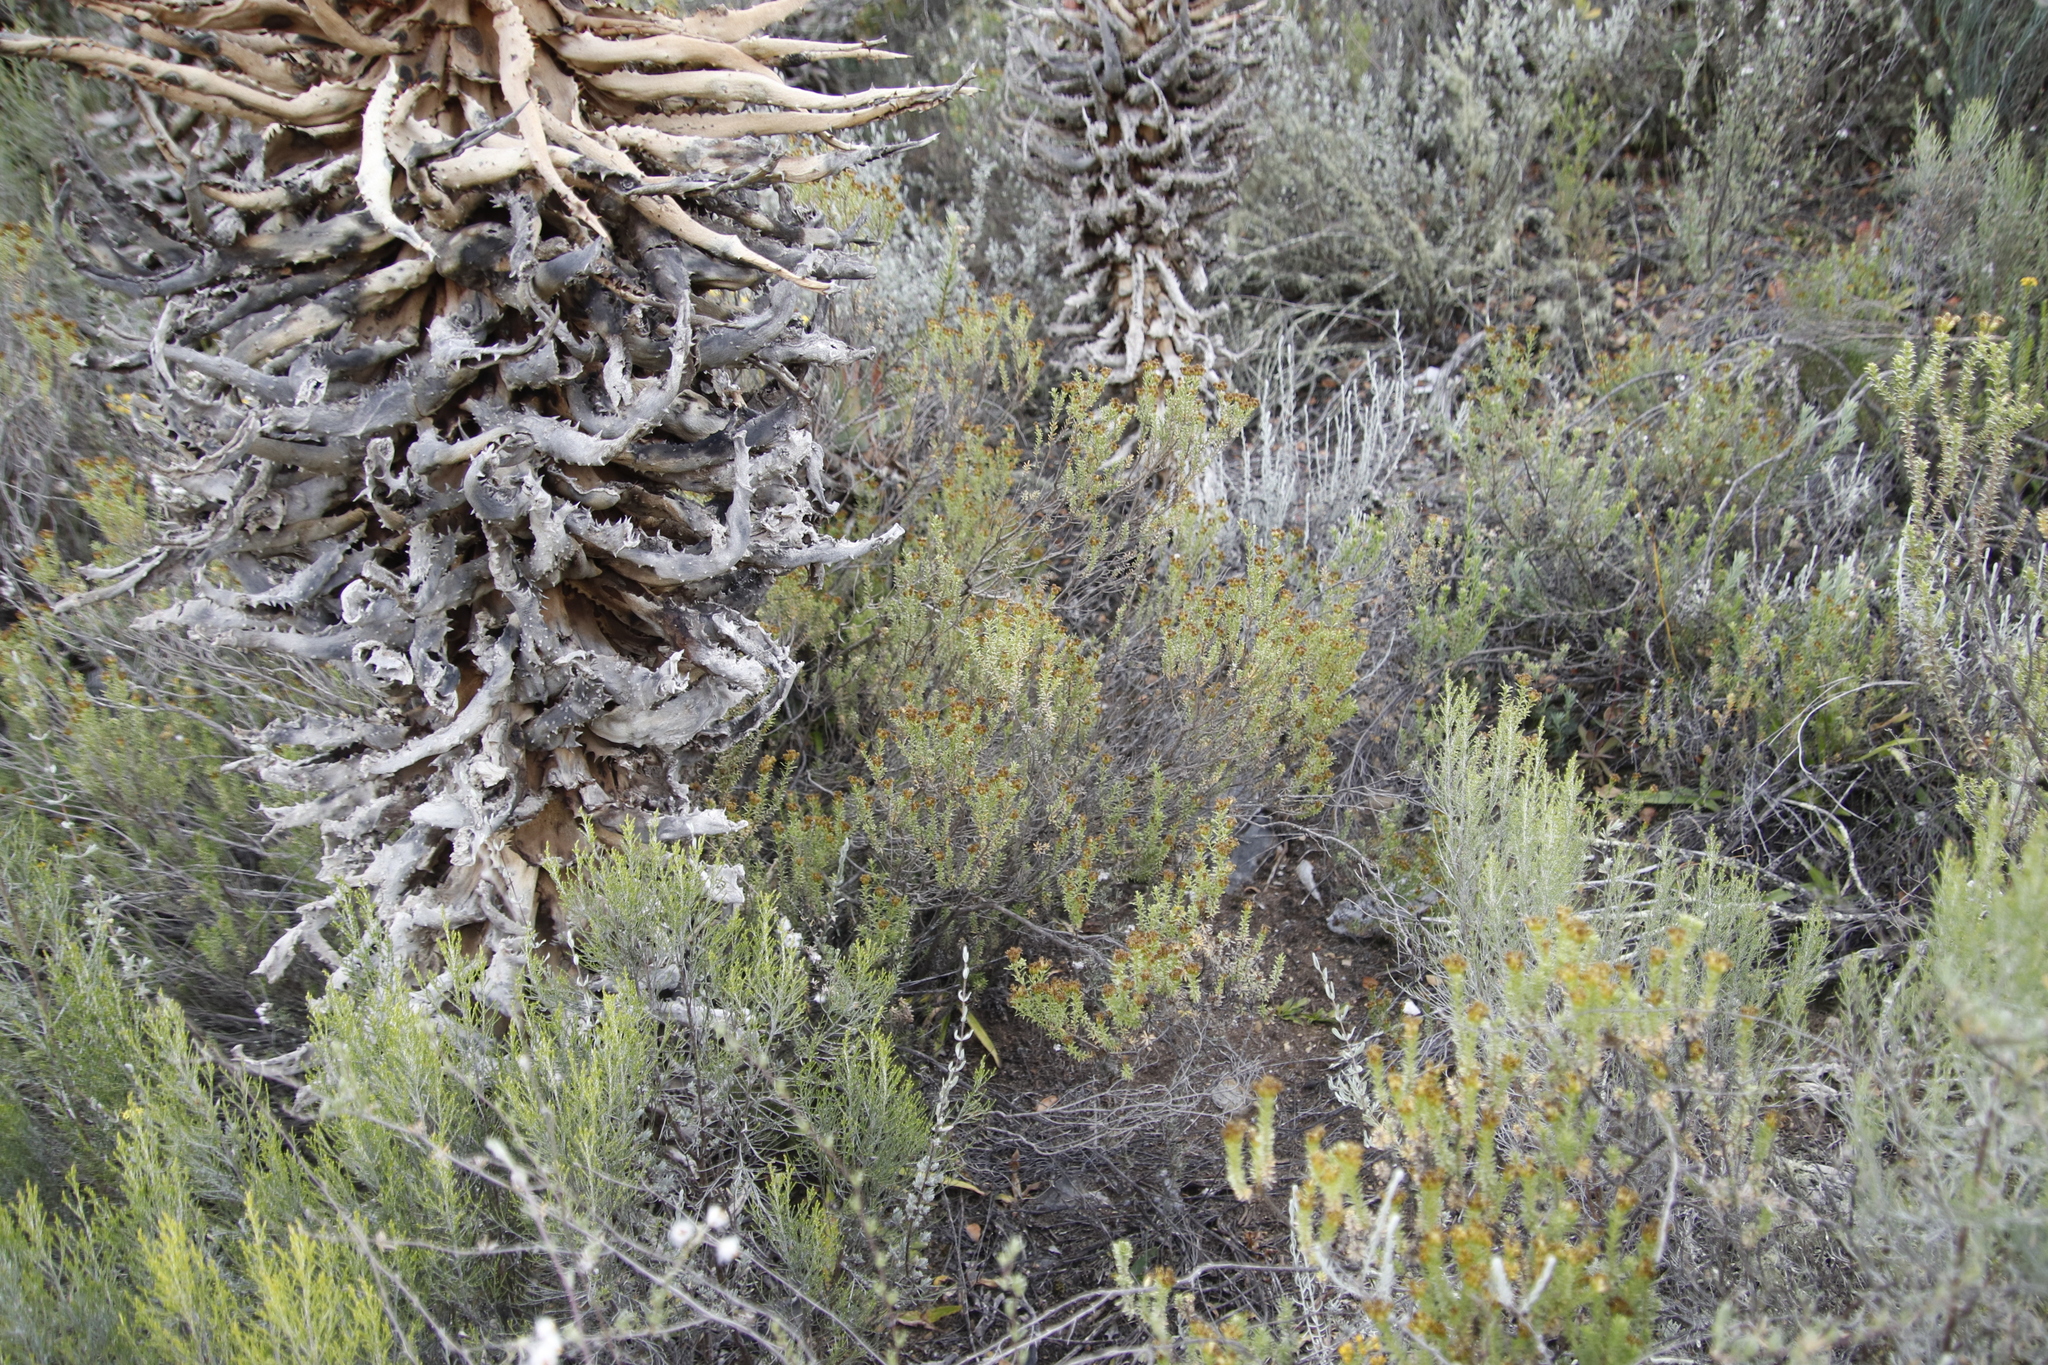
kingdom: Plantae
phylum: Tracheophyta
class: Magnoliopsida
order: Asterales
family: Asteraceae
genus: Oedera
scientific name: Oedera squarrosa
